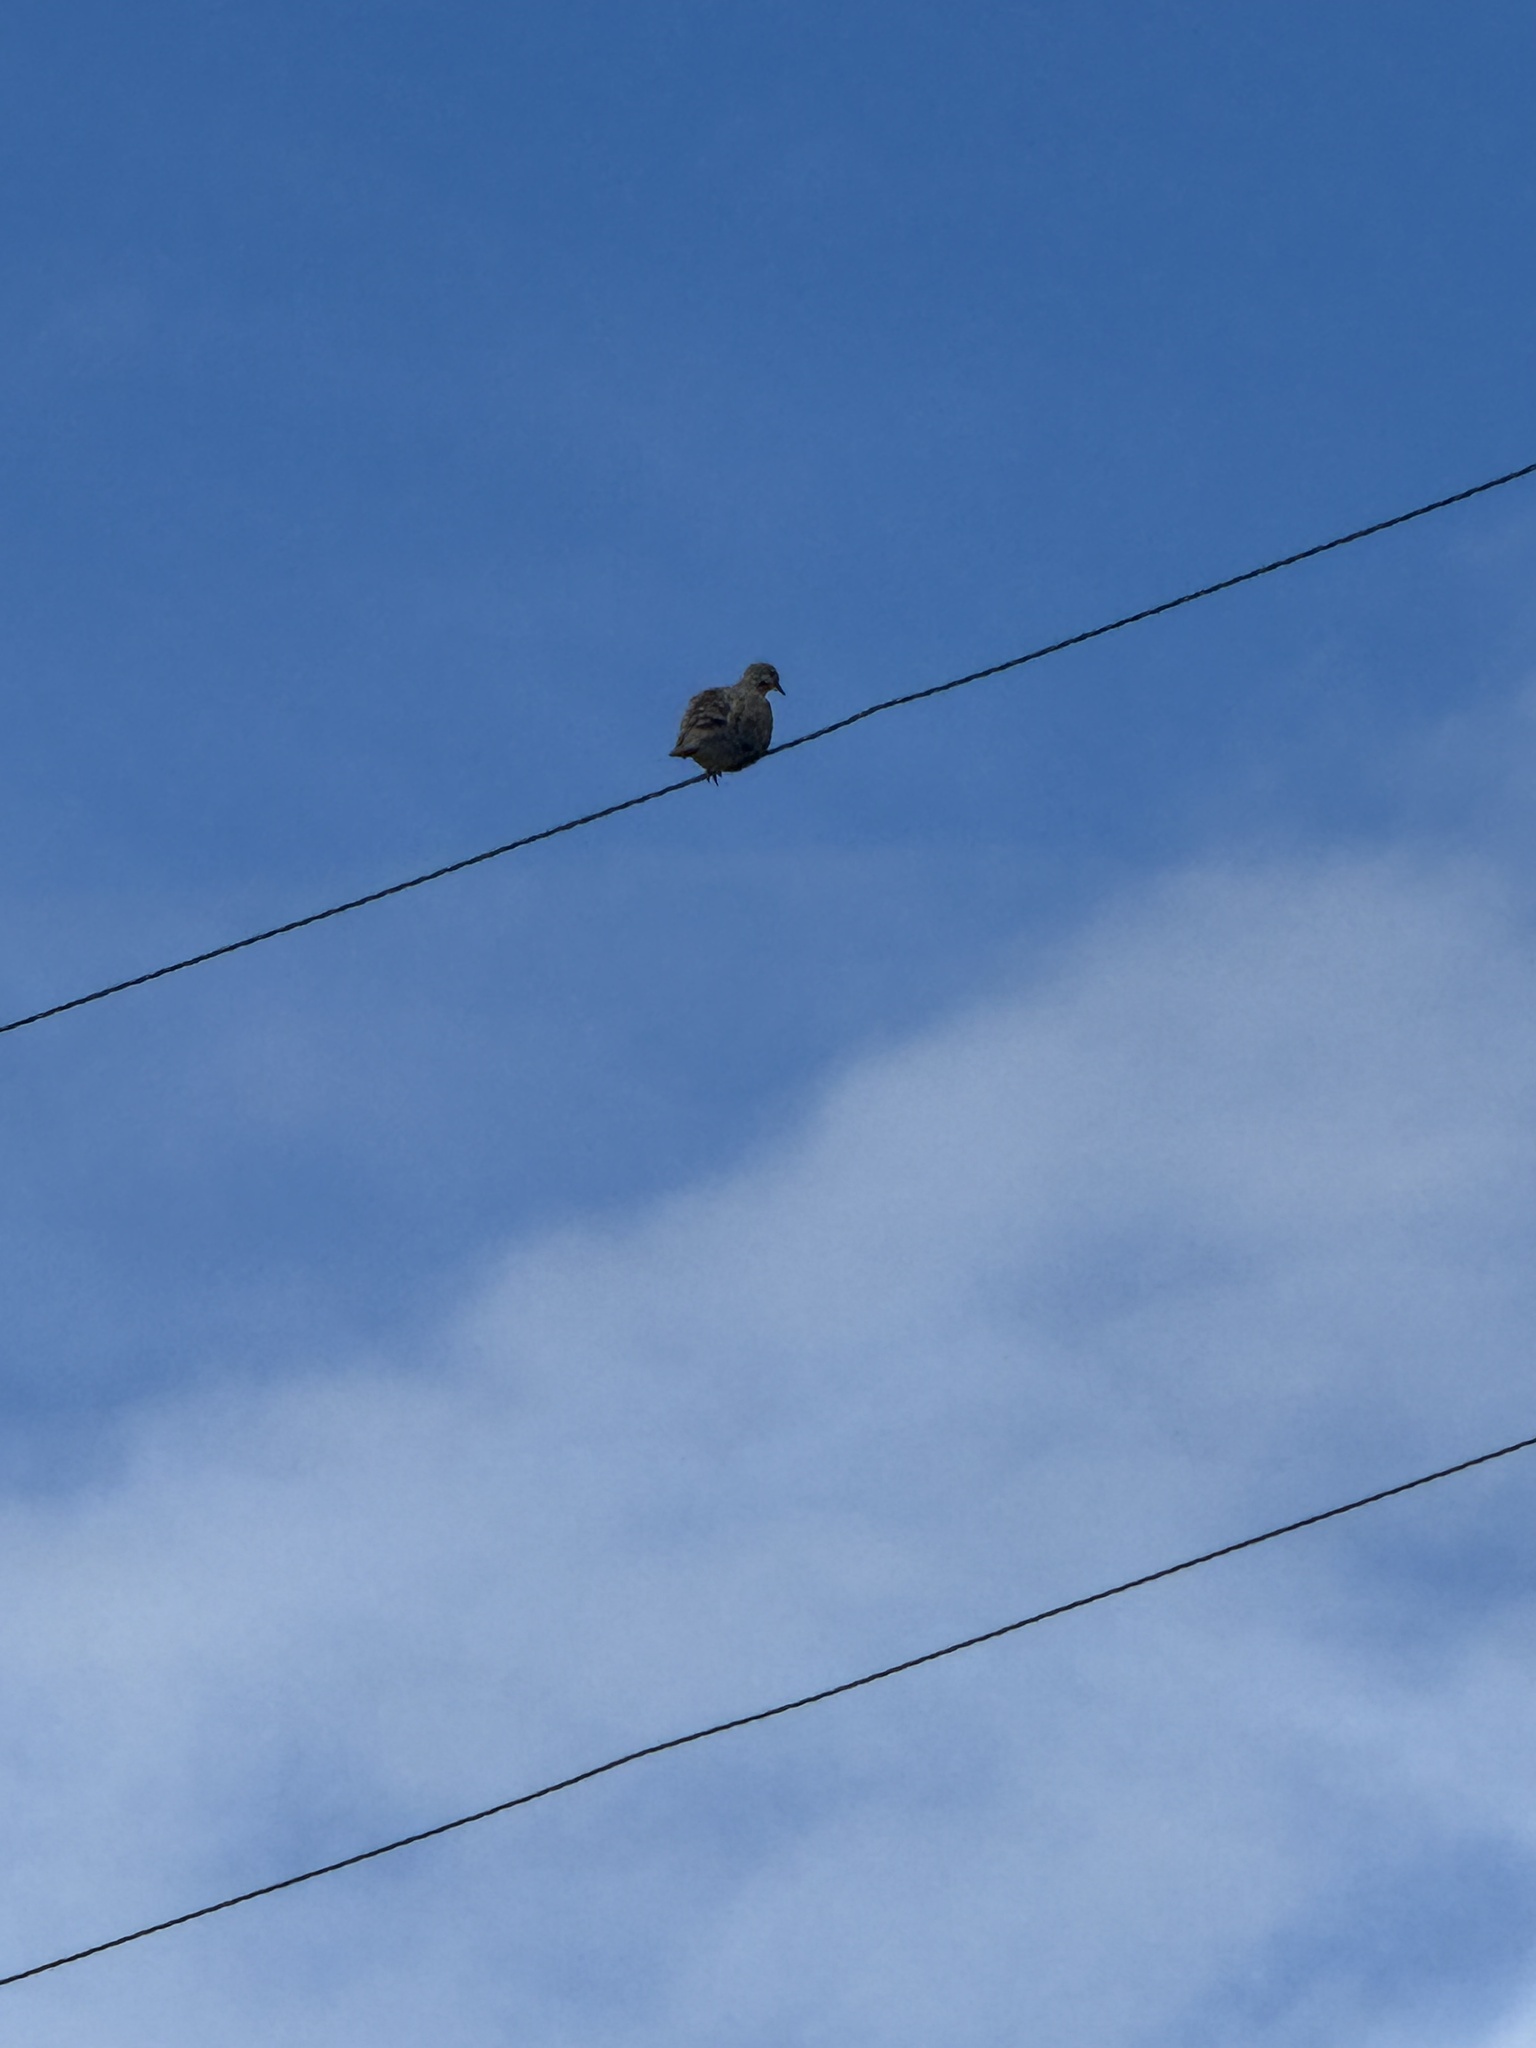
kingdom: Animalia
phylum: Chordata
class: Aves
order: Columbiformes
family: Columbidae
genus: Zenaida
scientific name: Zenaida macroura
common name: Mourning dove
